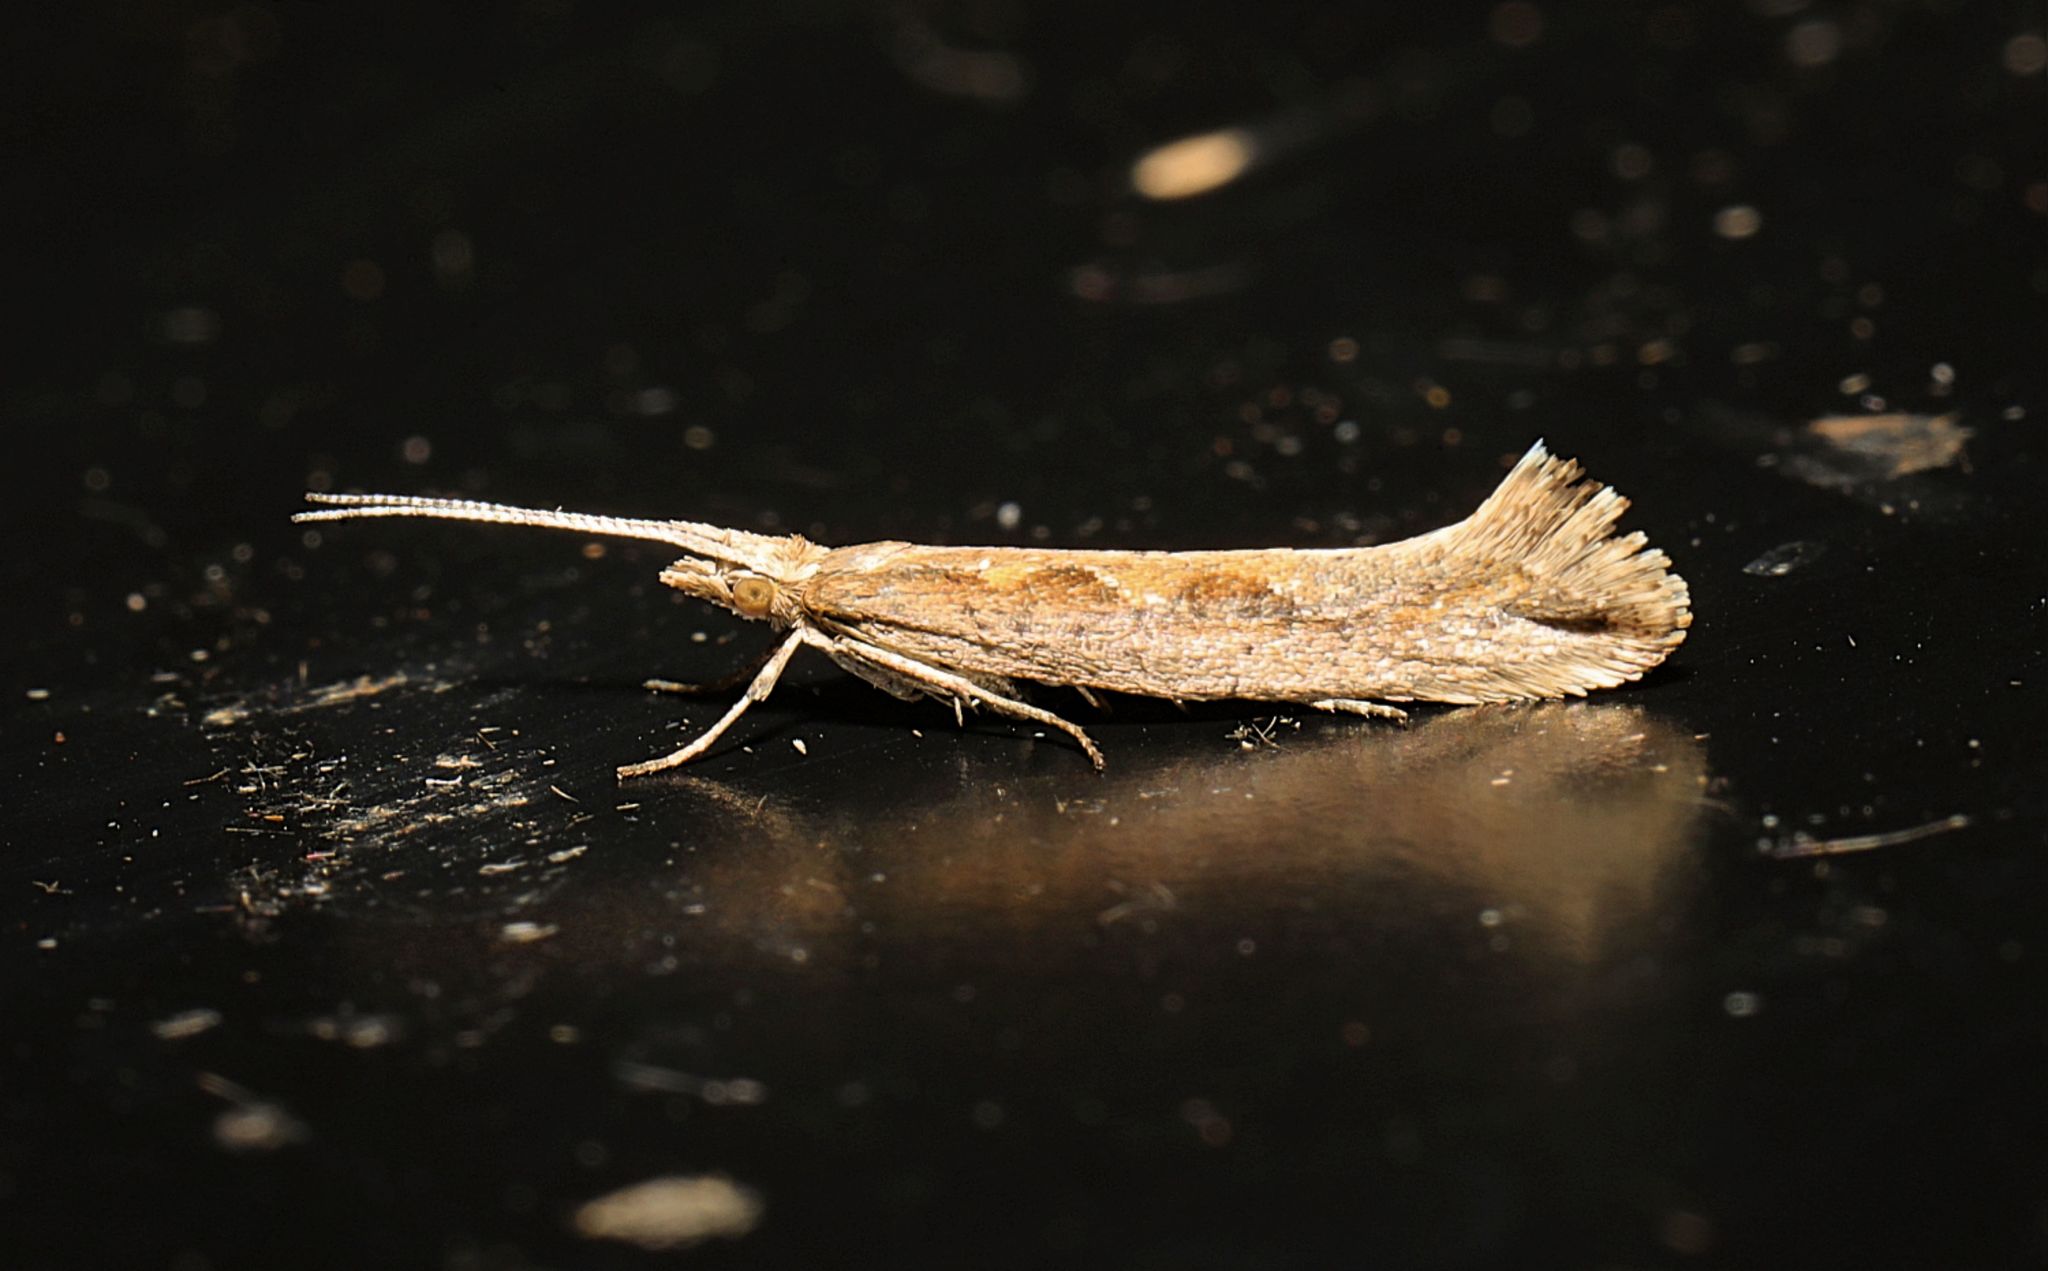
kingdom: Animalia
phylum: Arthropoda
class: Insecta
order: Lepidoptera
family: Plutellidae
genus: Plutella
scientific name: Plutella xylostella
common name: Diamond-back moth
